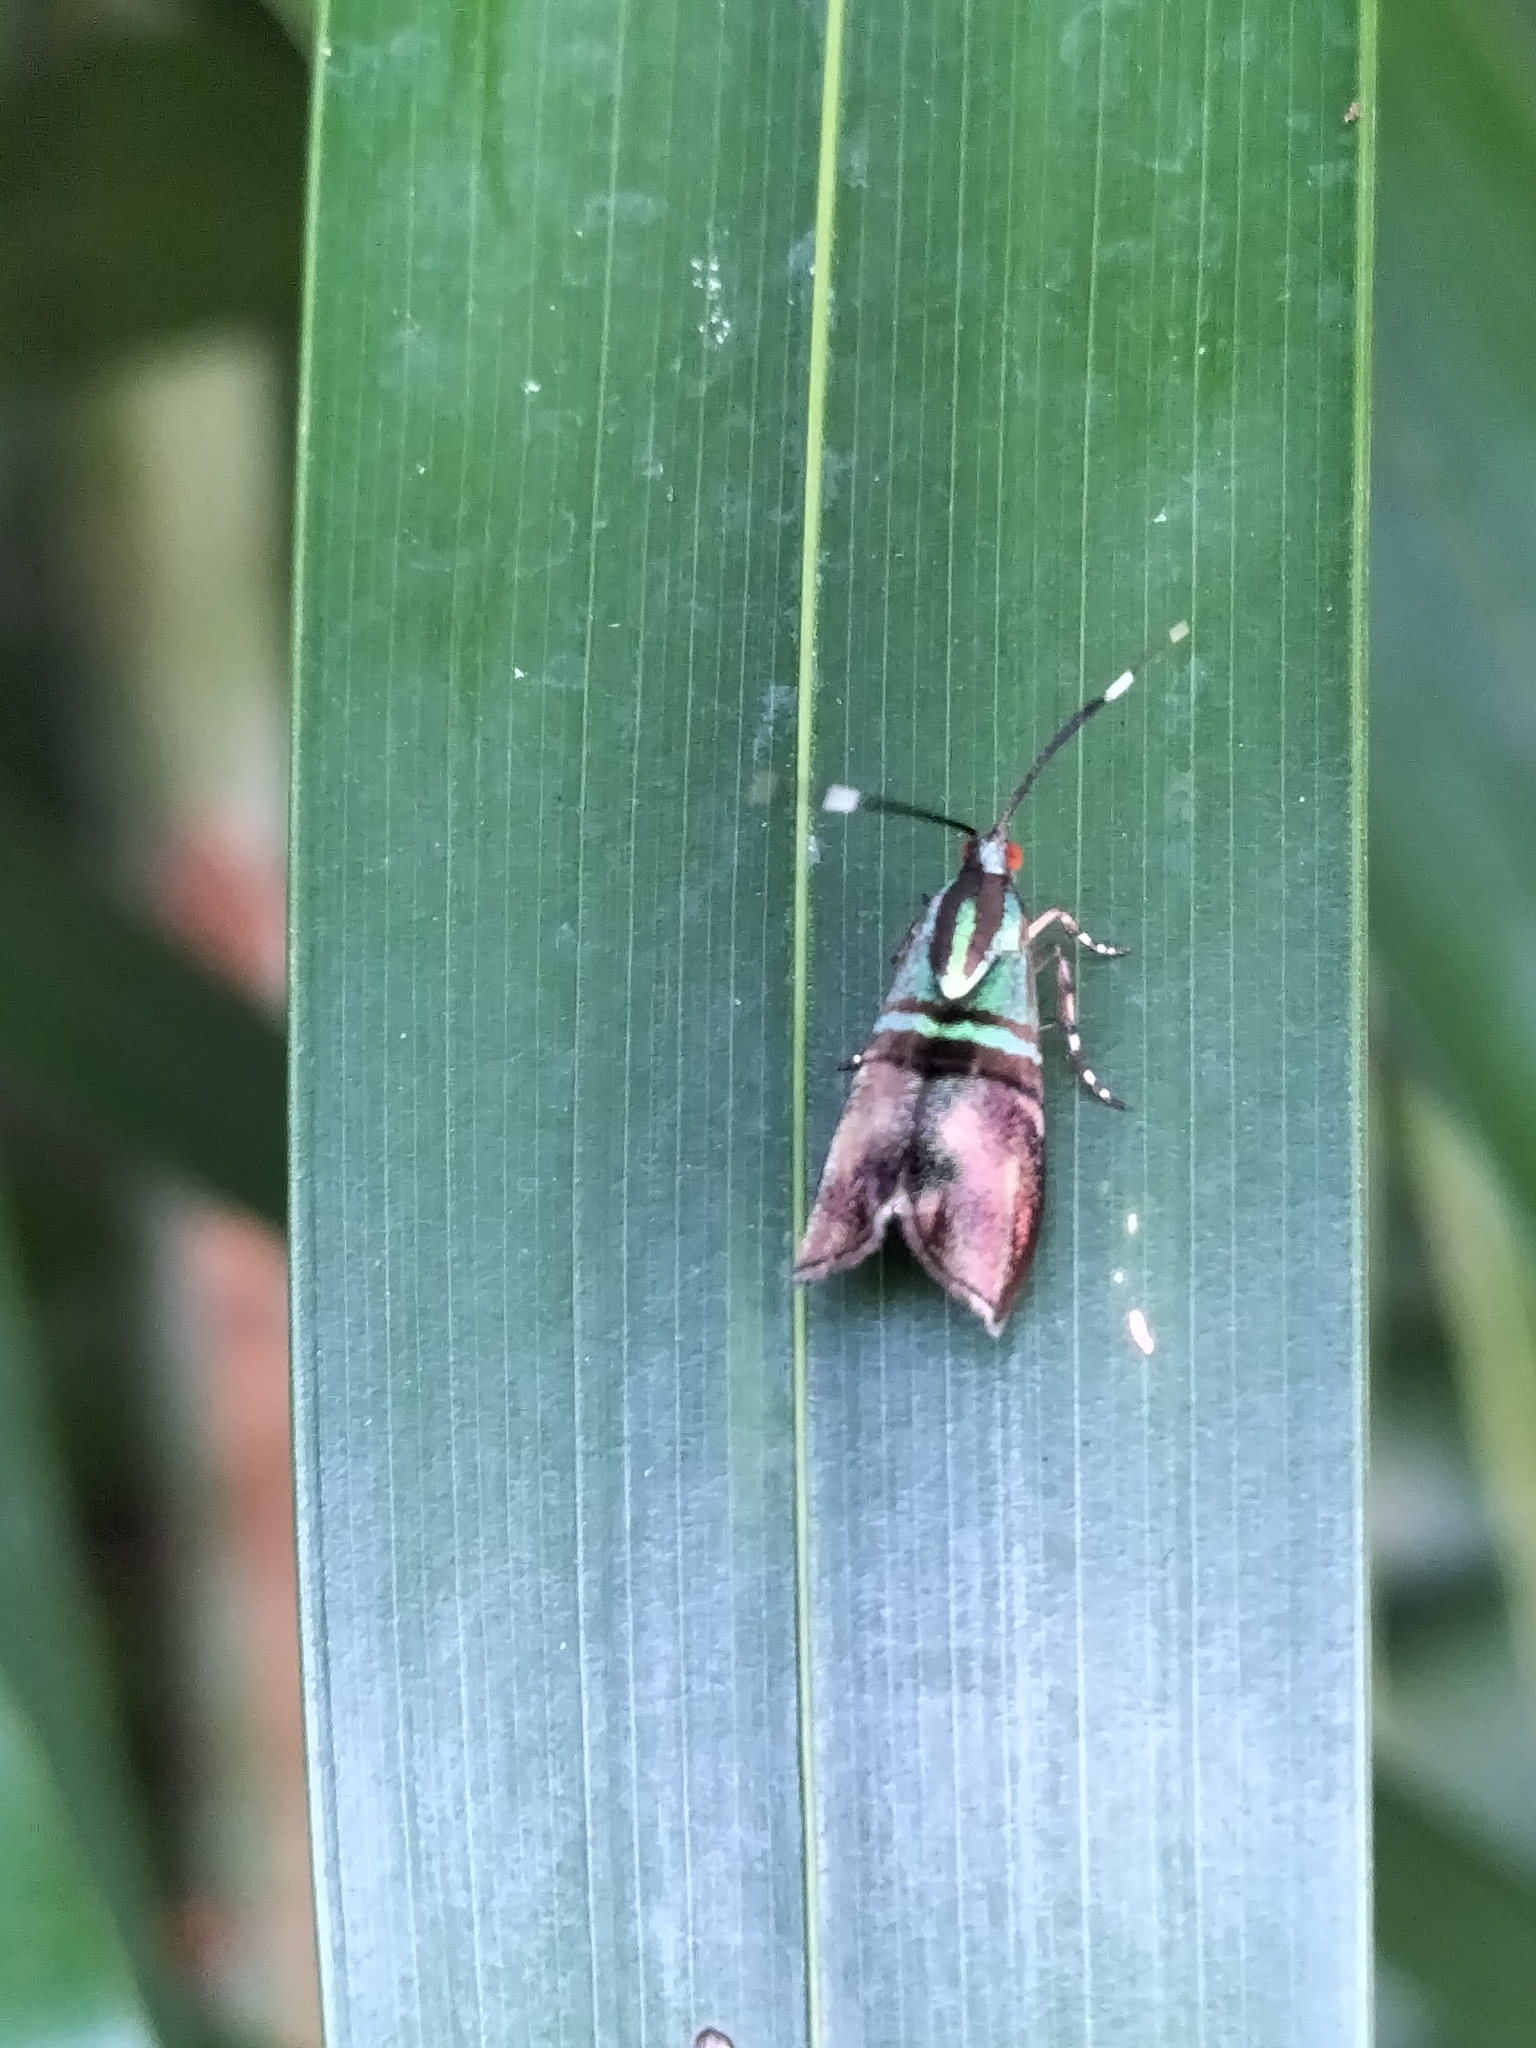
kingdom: Animalia
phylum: Arthropoda
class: Insecta
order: Lepidoptera
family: Choreutidae
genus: Saptha
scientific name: Saptha libanota
